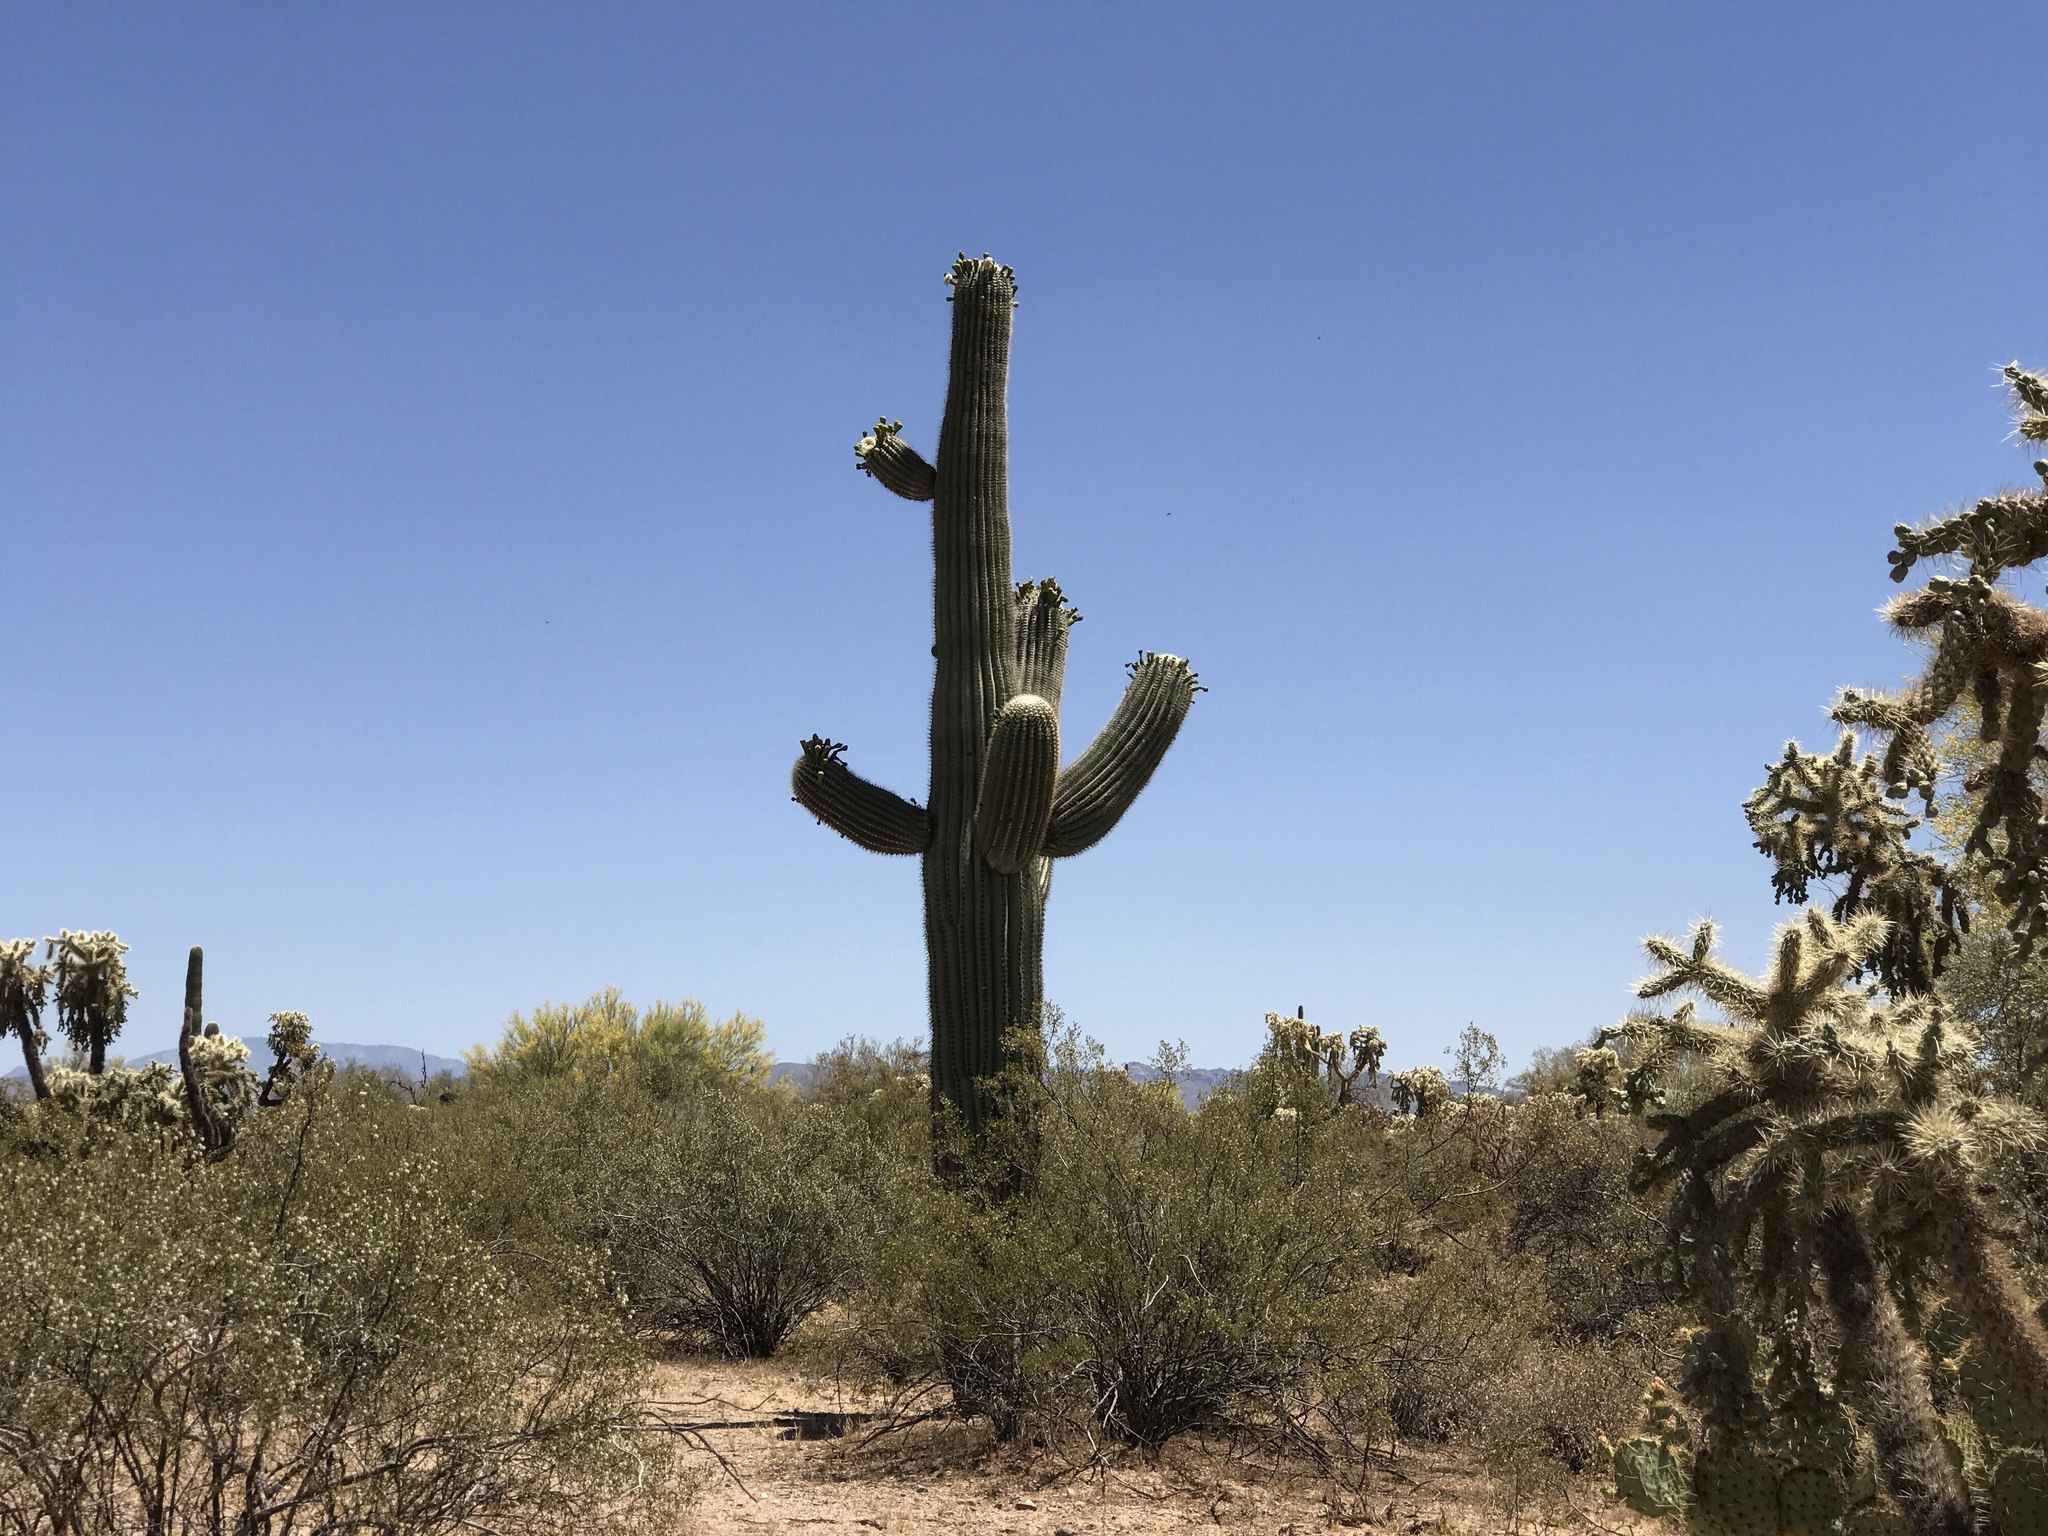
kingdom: Plantae
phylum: Tracheophyta
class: Magnoliopsida
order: Caryophyllales
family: Cactaceae
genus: Carnegiea
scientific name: Carnegiea gigantea
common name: Saguaro
